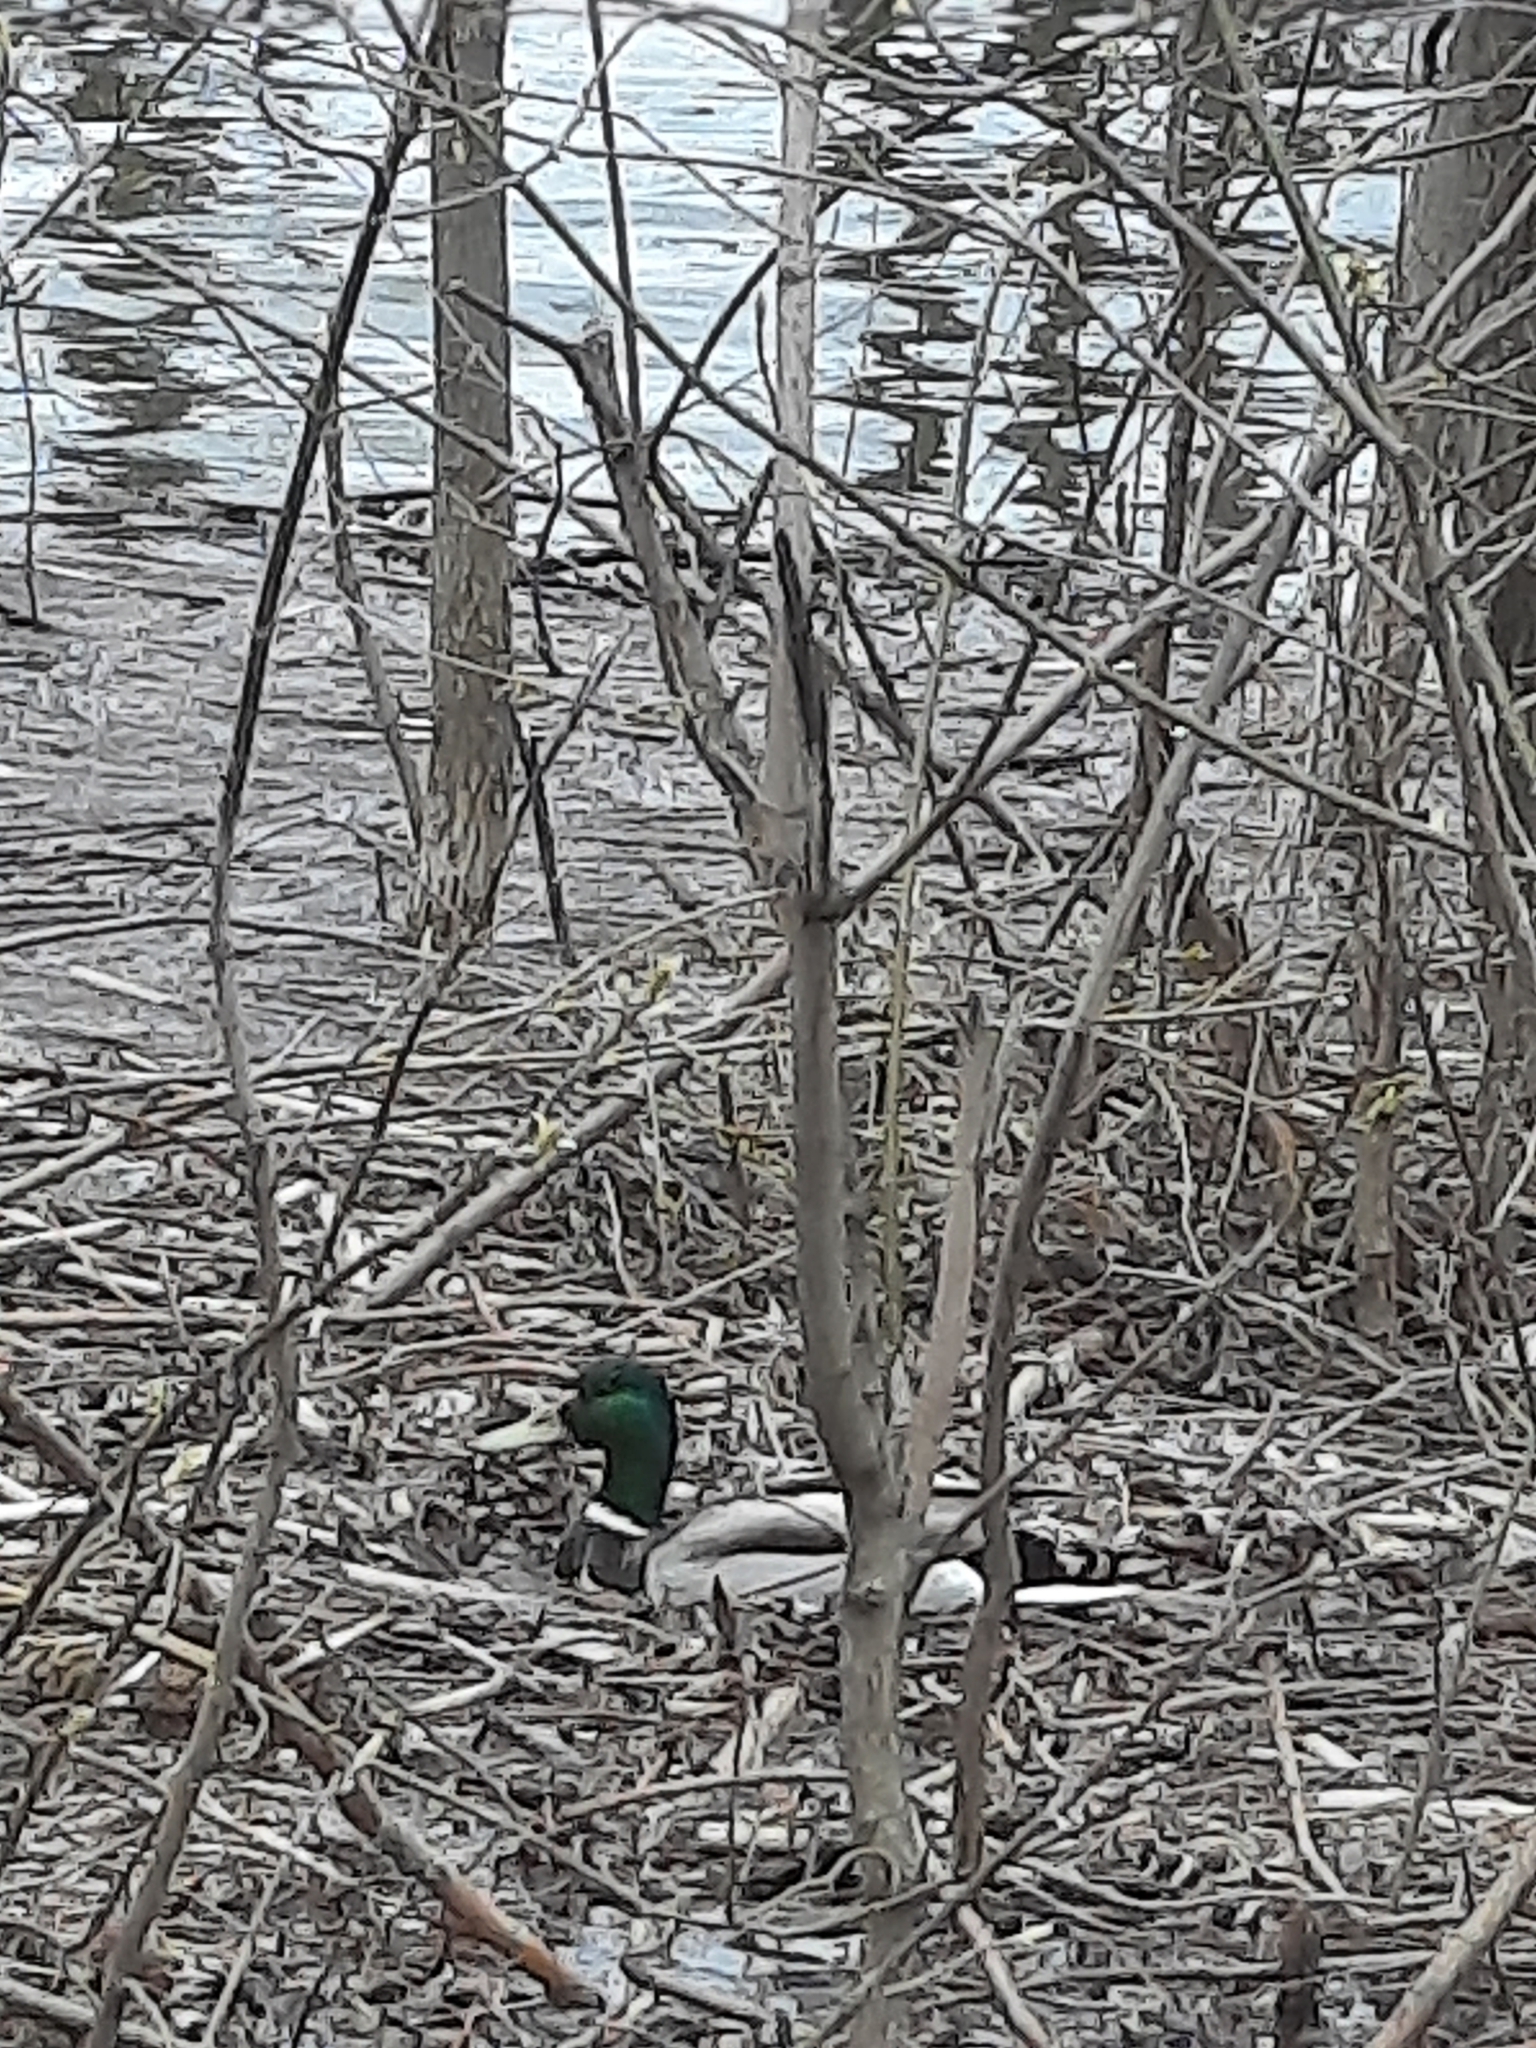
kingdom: Animalia
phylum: Chordata
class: Aves
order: Anseriformes
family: Anatidae
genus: Anas
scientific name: Anas platyrhynchos
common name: Mallard
